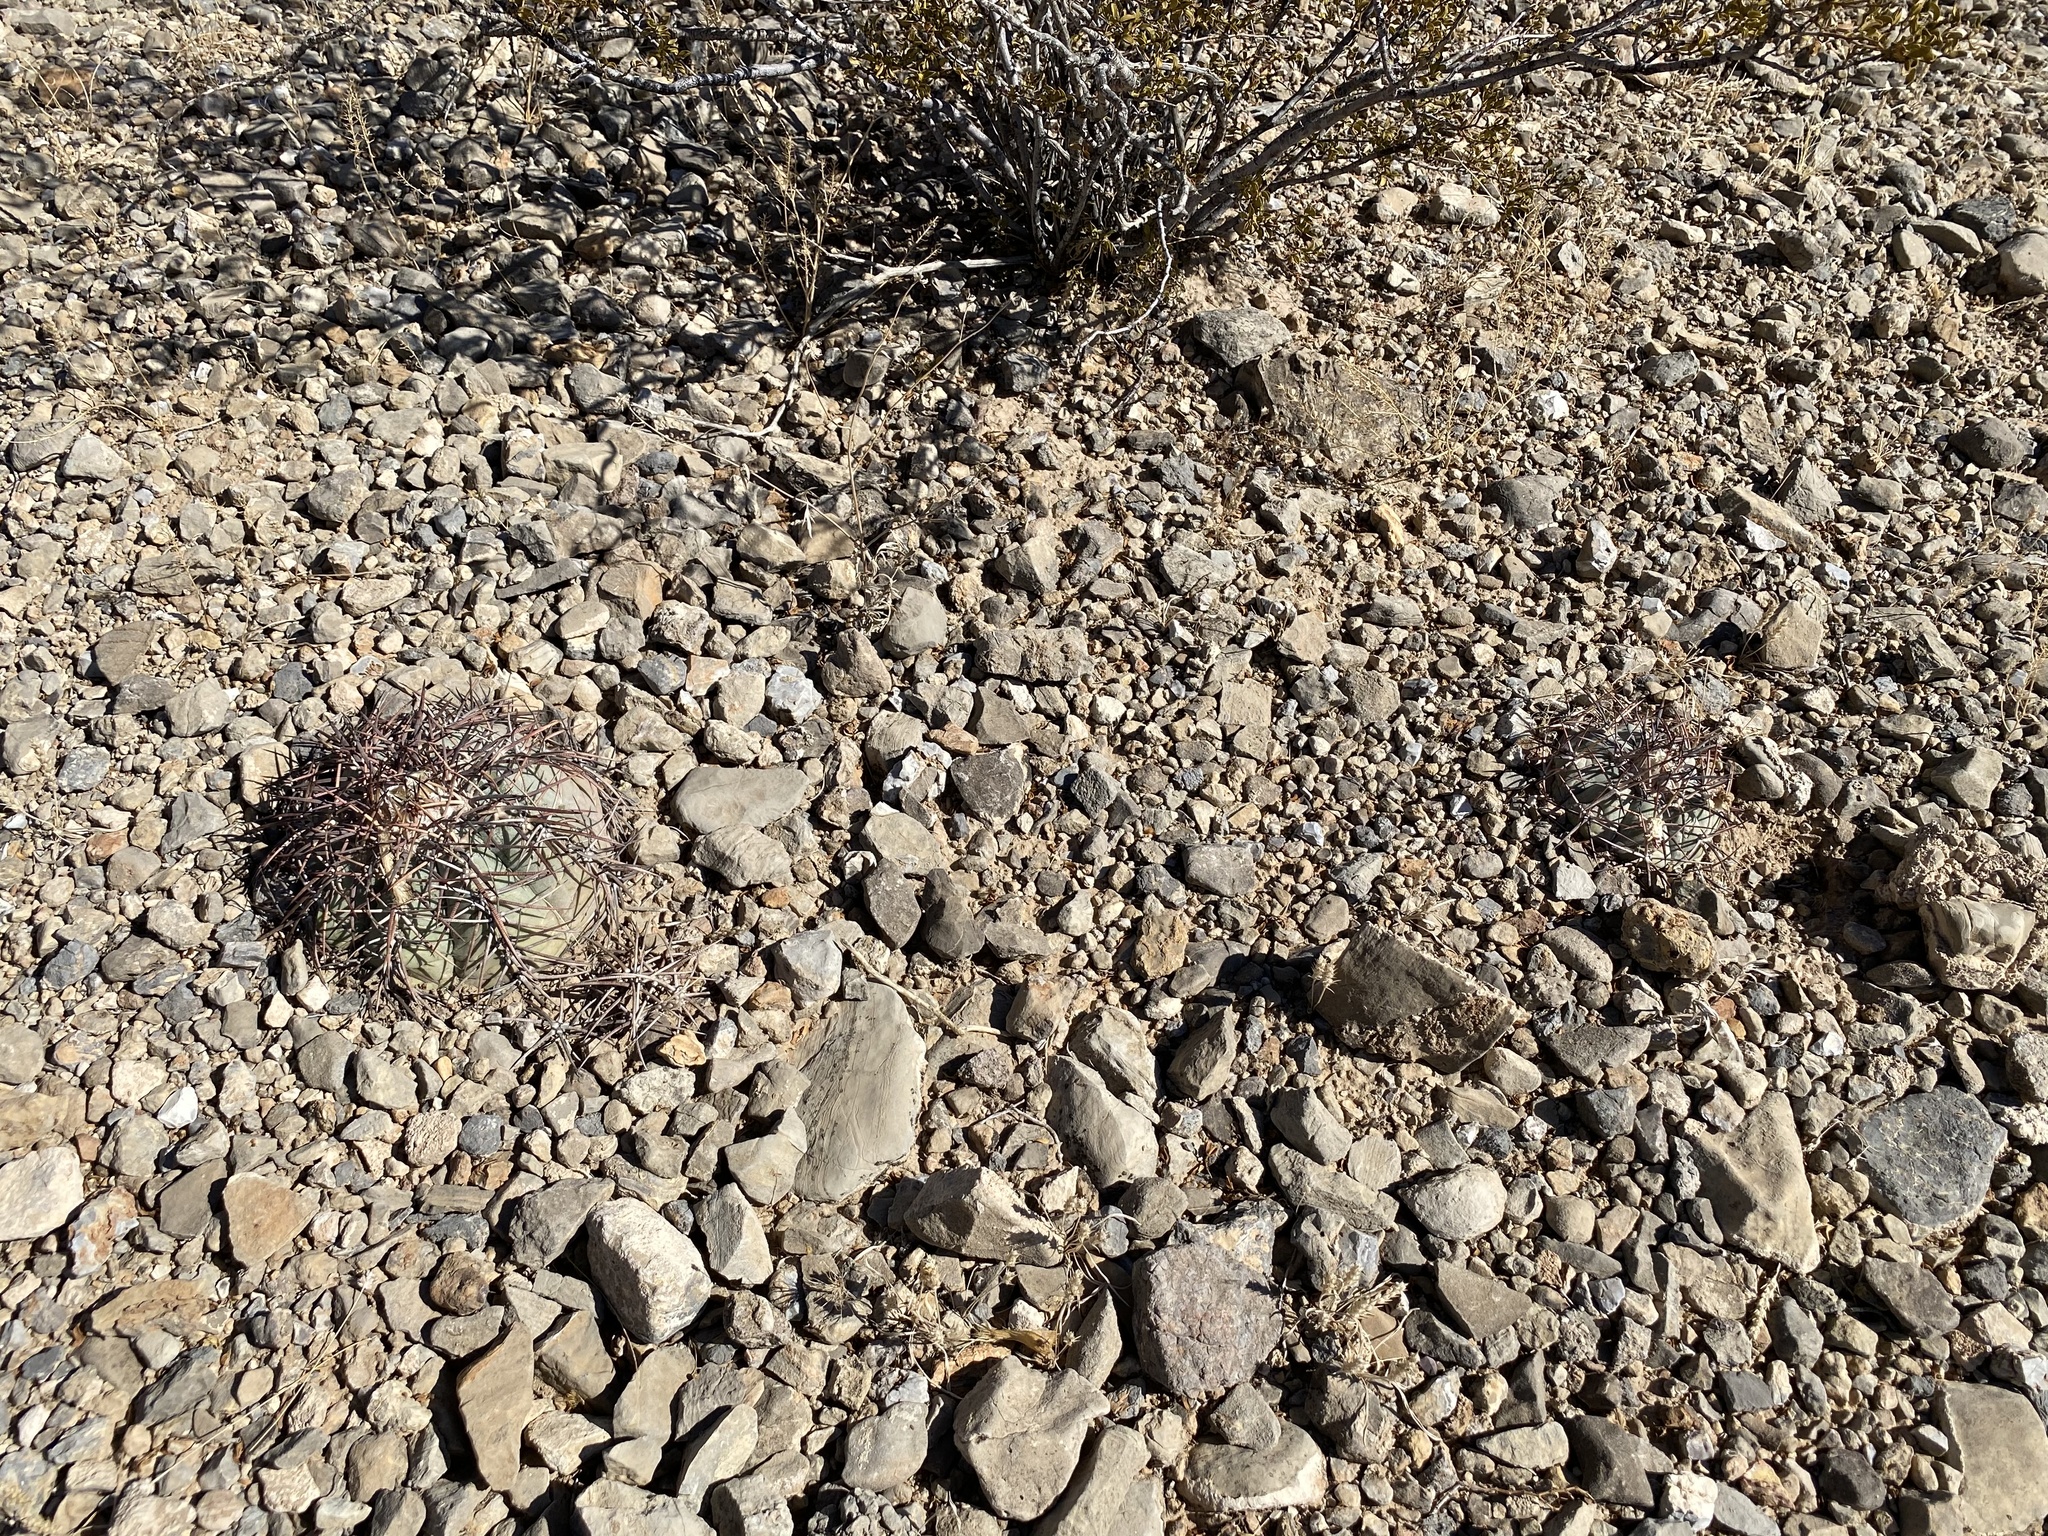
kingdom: Plantae
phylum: Tracheophyta
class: Magnoliopsida
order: Caryophyllales
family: Cactaceae
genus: Echinocactus
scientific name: Echinocactus horizonthalonius
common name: Devilshead
